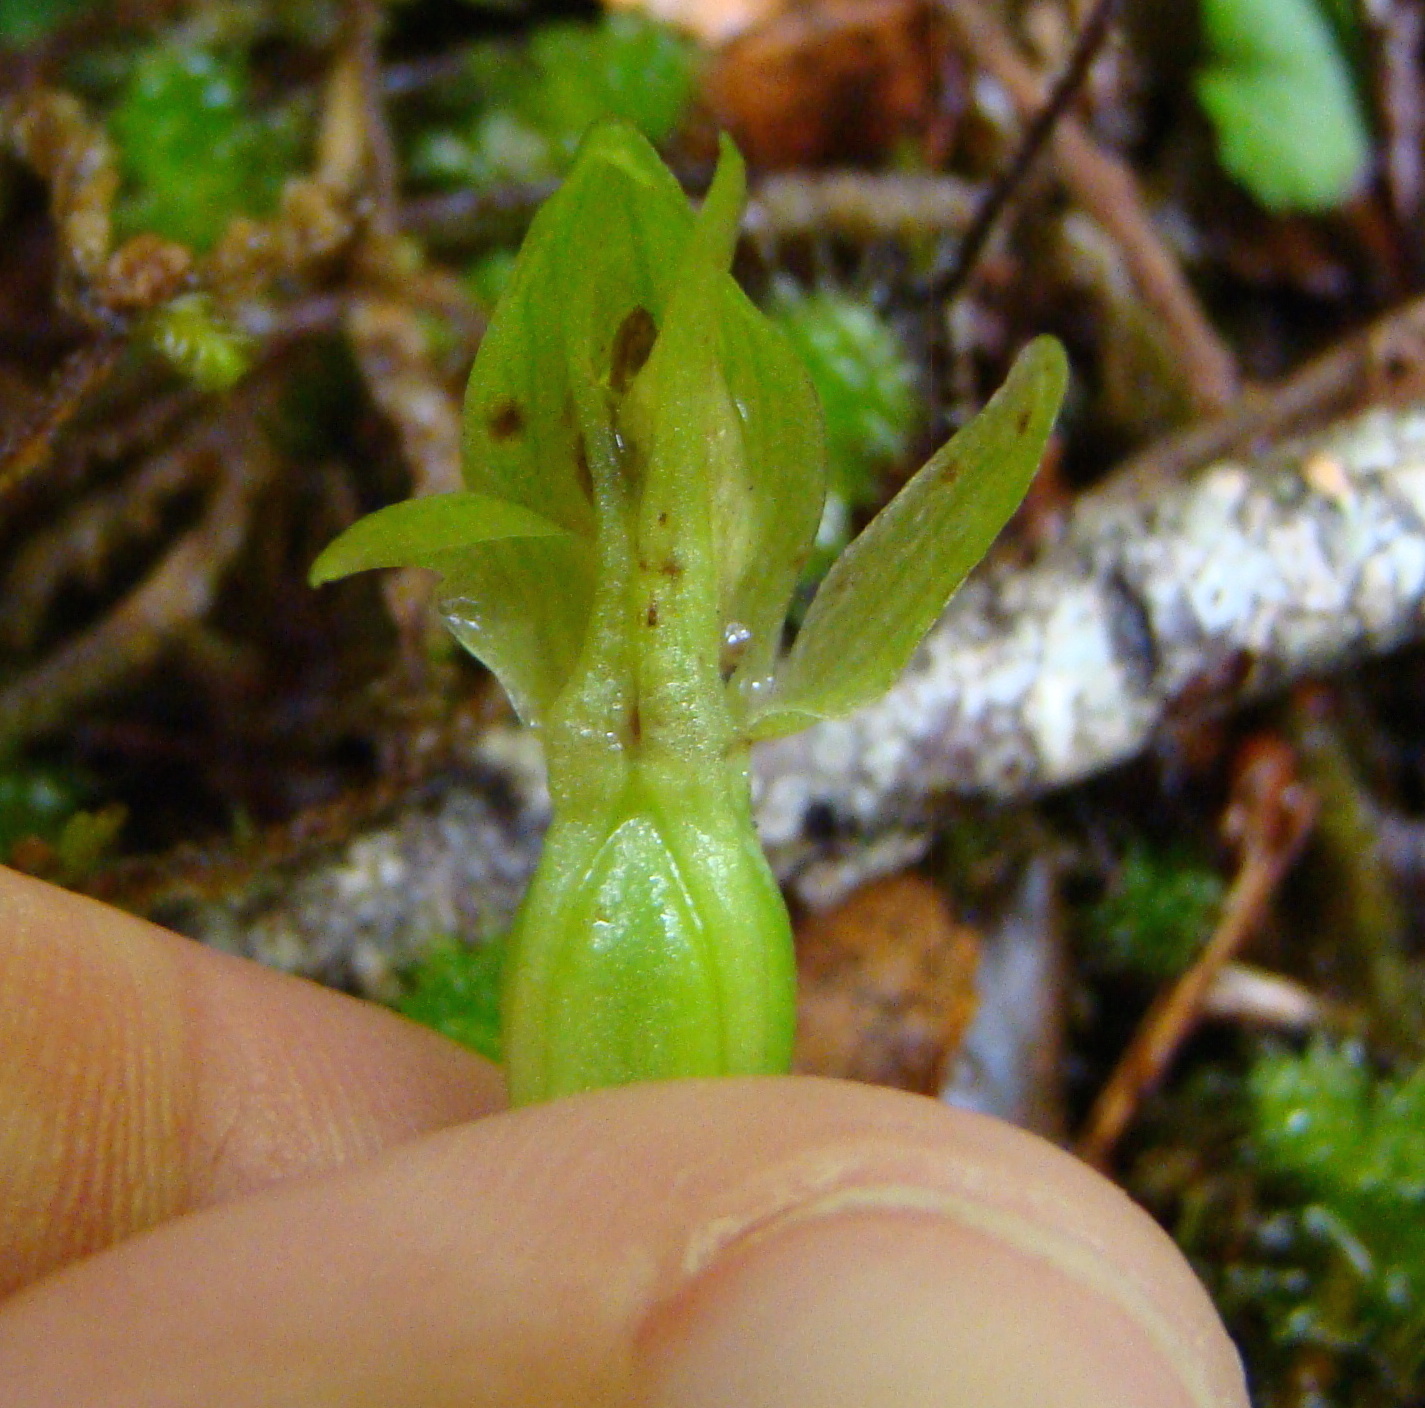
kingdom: Plantae
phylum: Tracheophyta
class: Liliopsida
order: Asparagales
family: Orchidaceae
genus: Chiloglottis
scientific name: Chiloglottis cornuta
